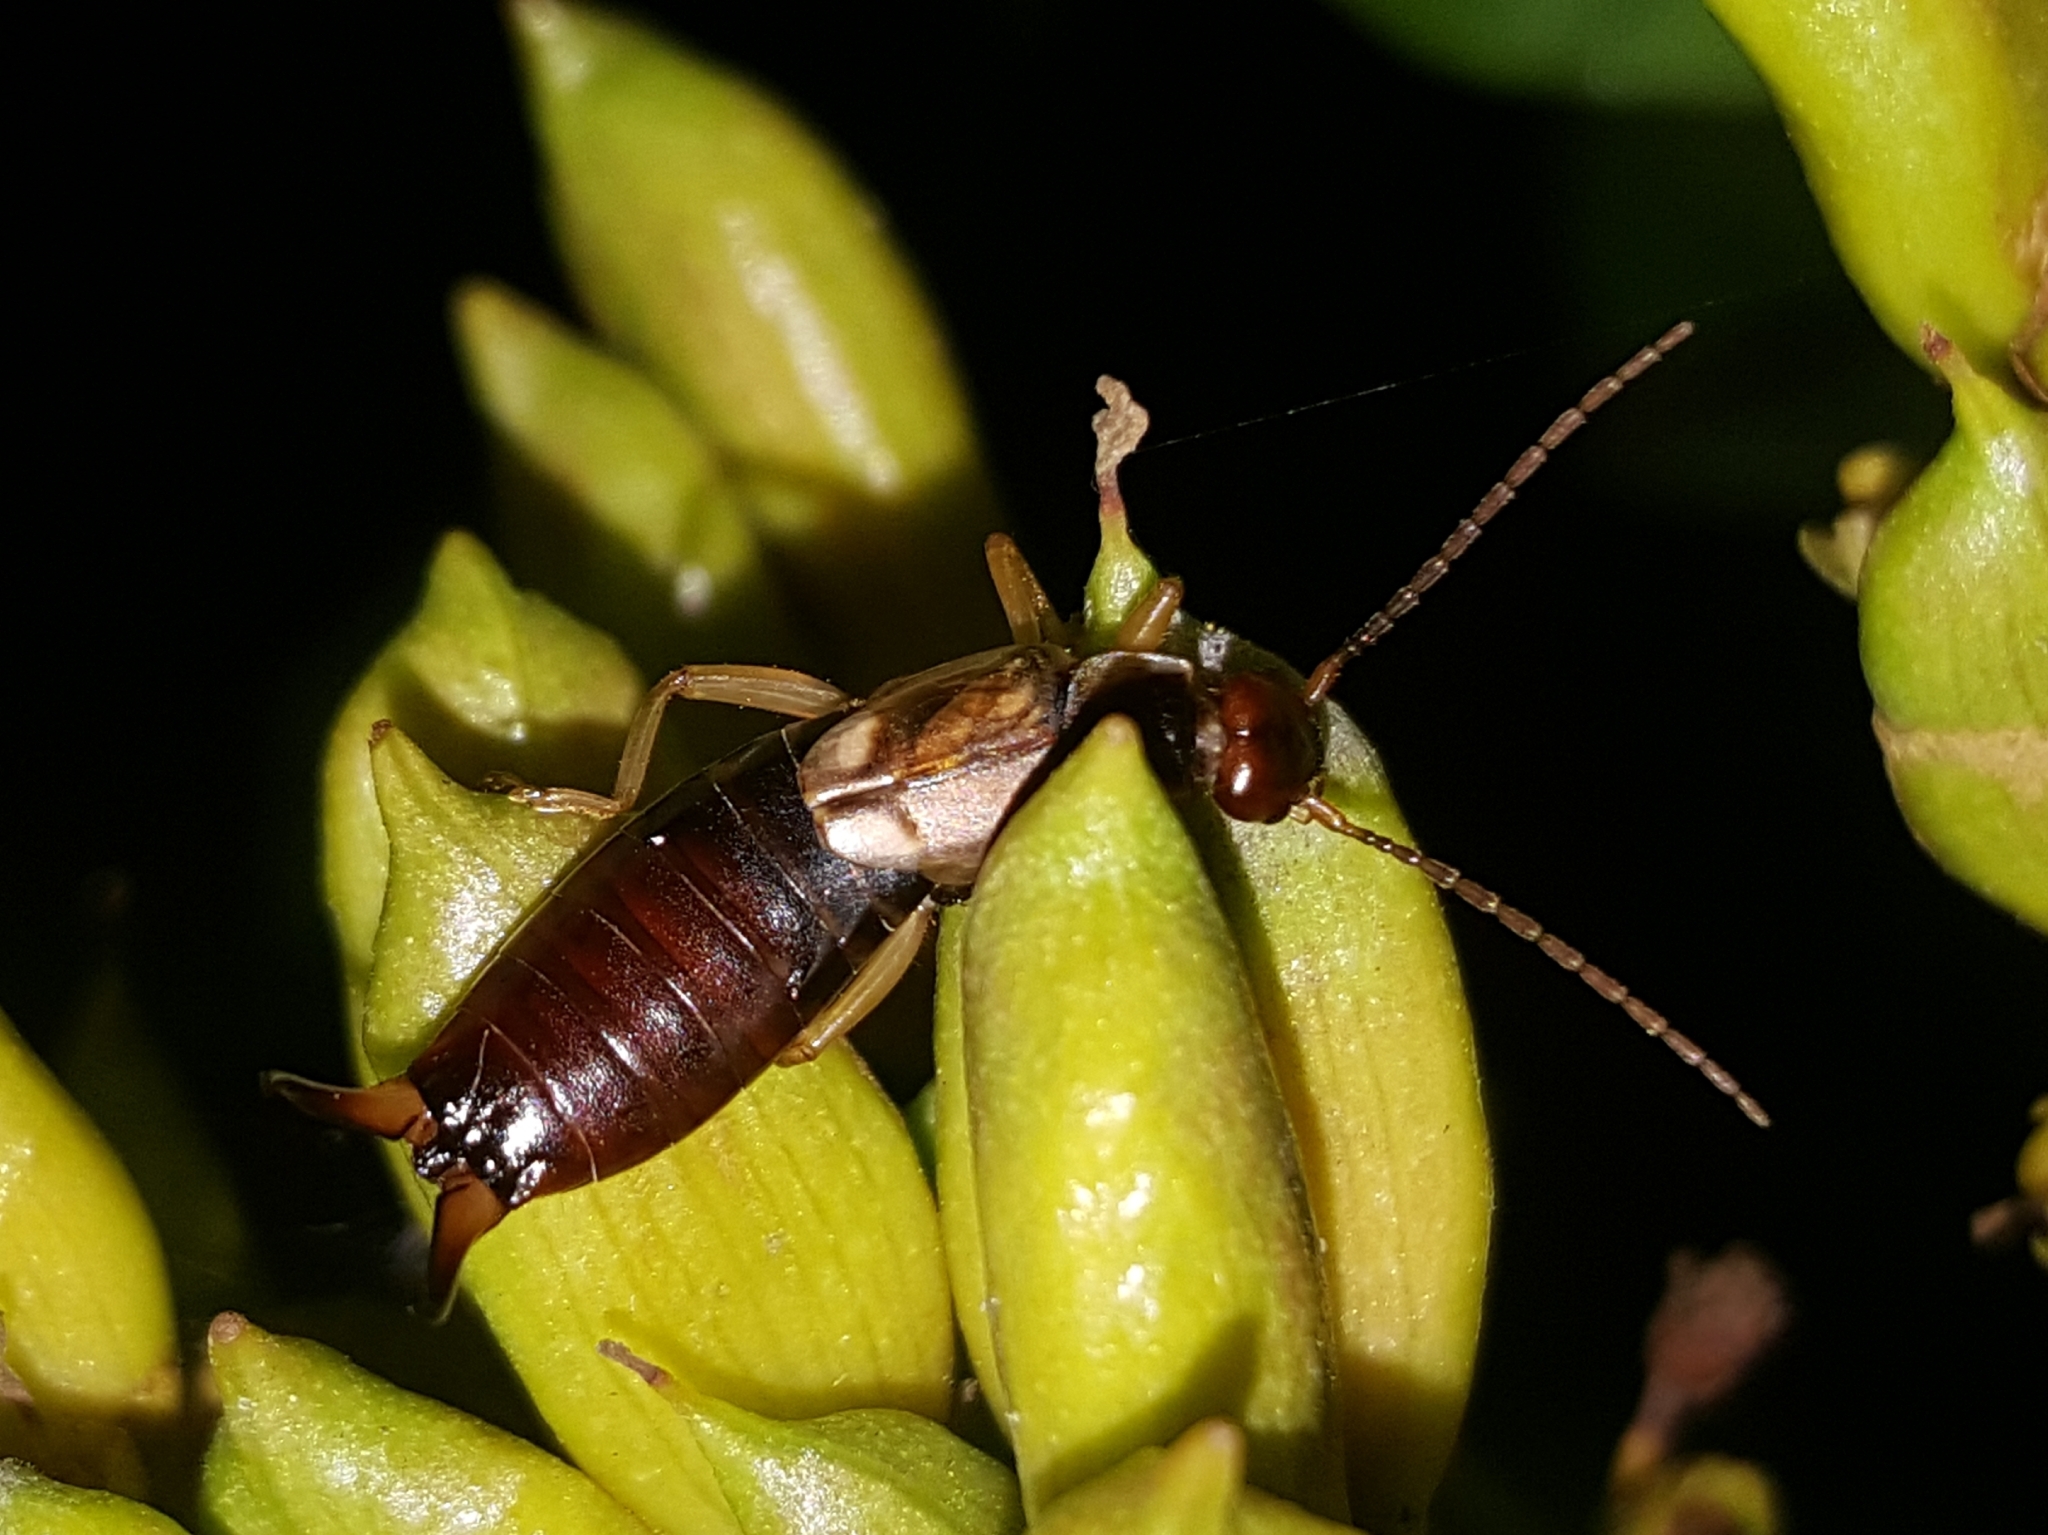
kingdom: Animalia
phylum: Arthropoda
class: Insecta
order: Dermaptera
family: Forficulidae
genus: Forficula
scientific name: Forficula
